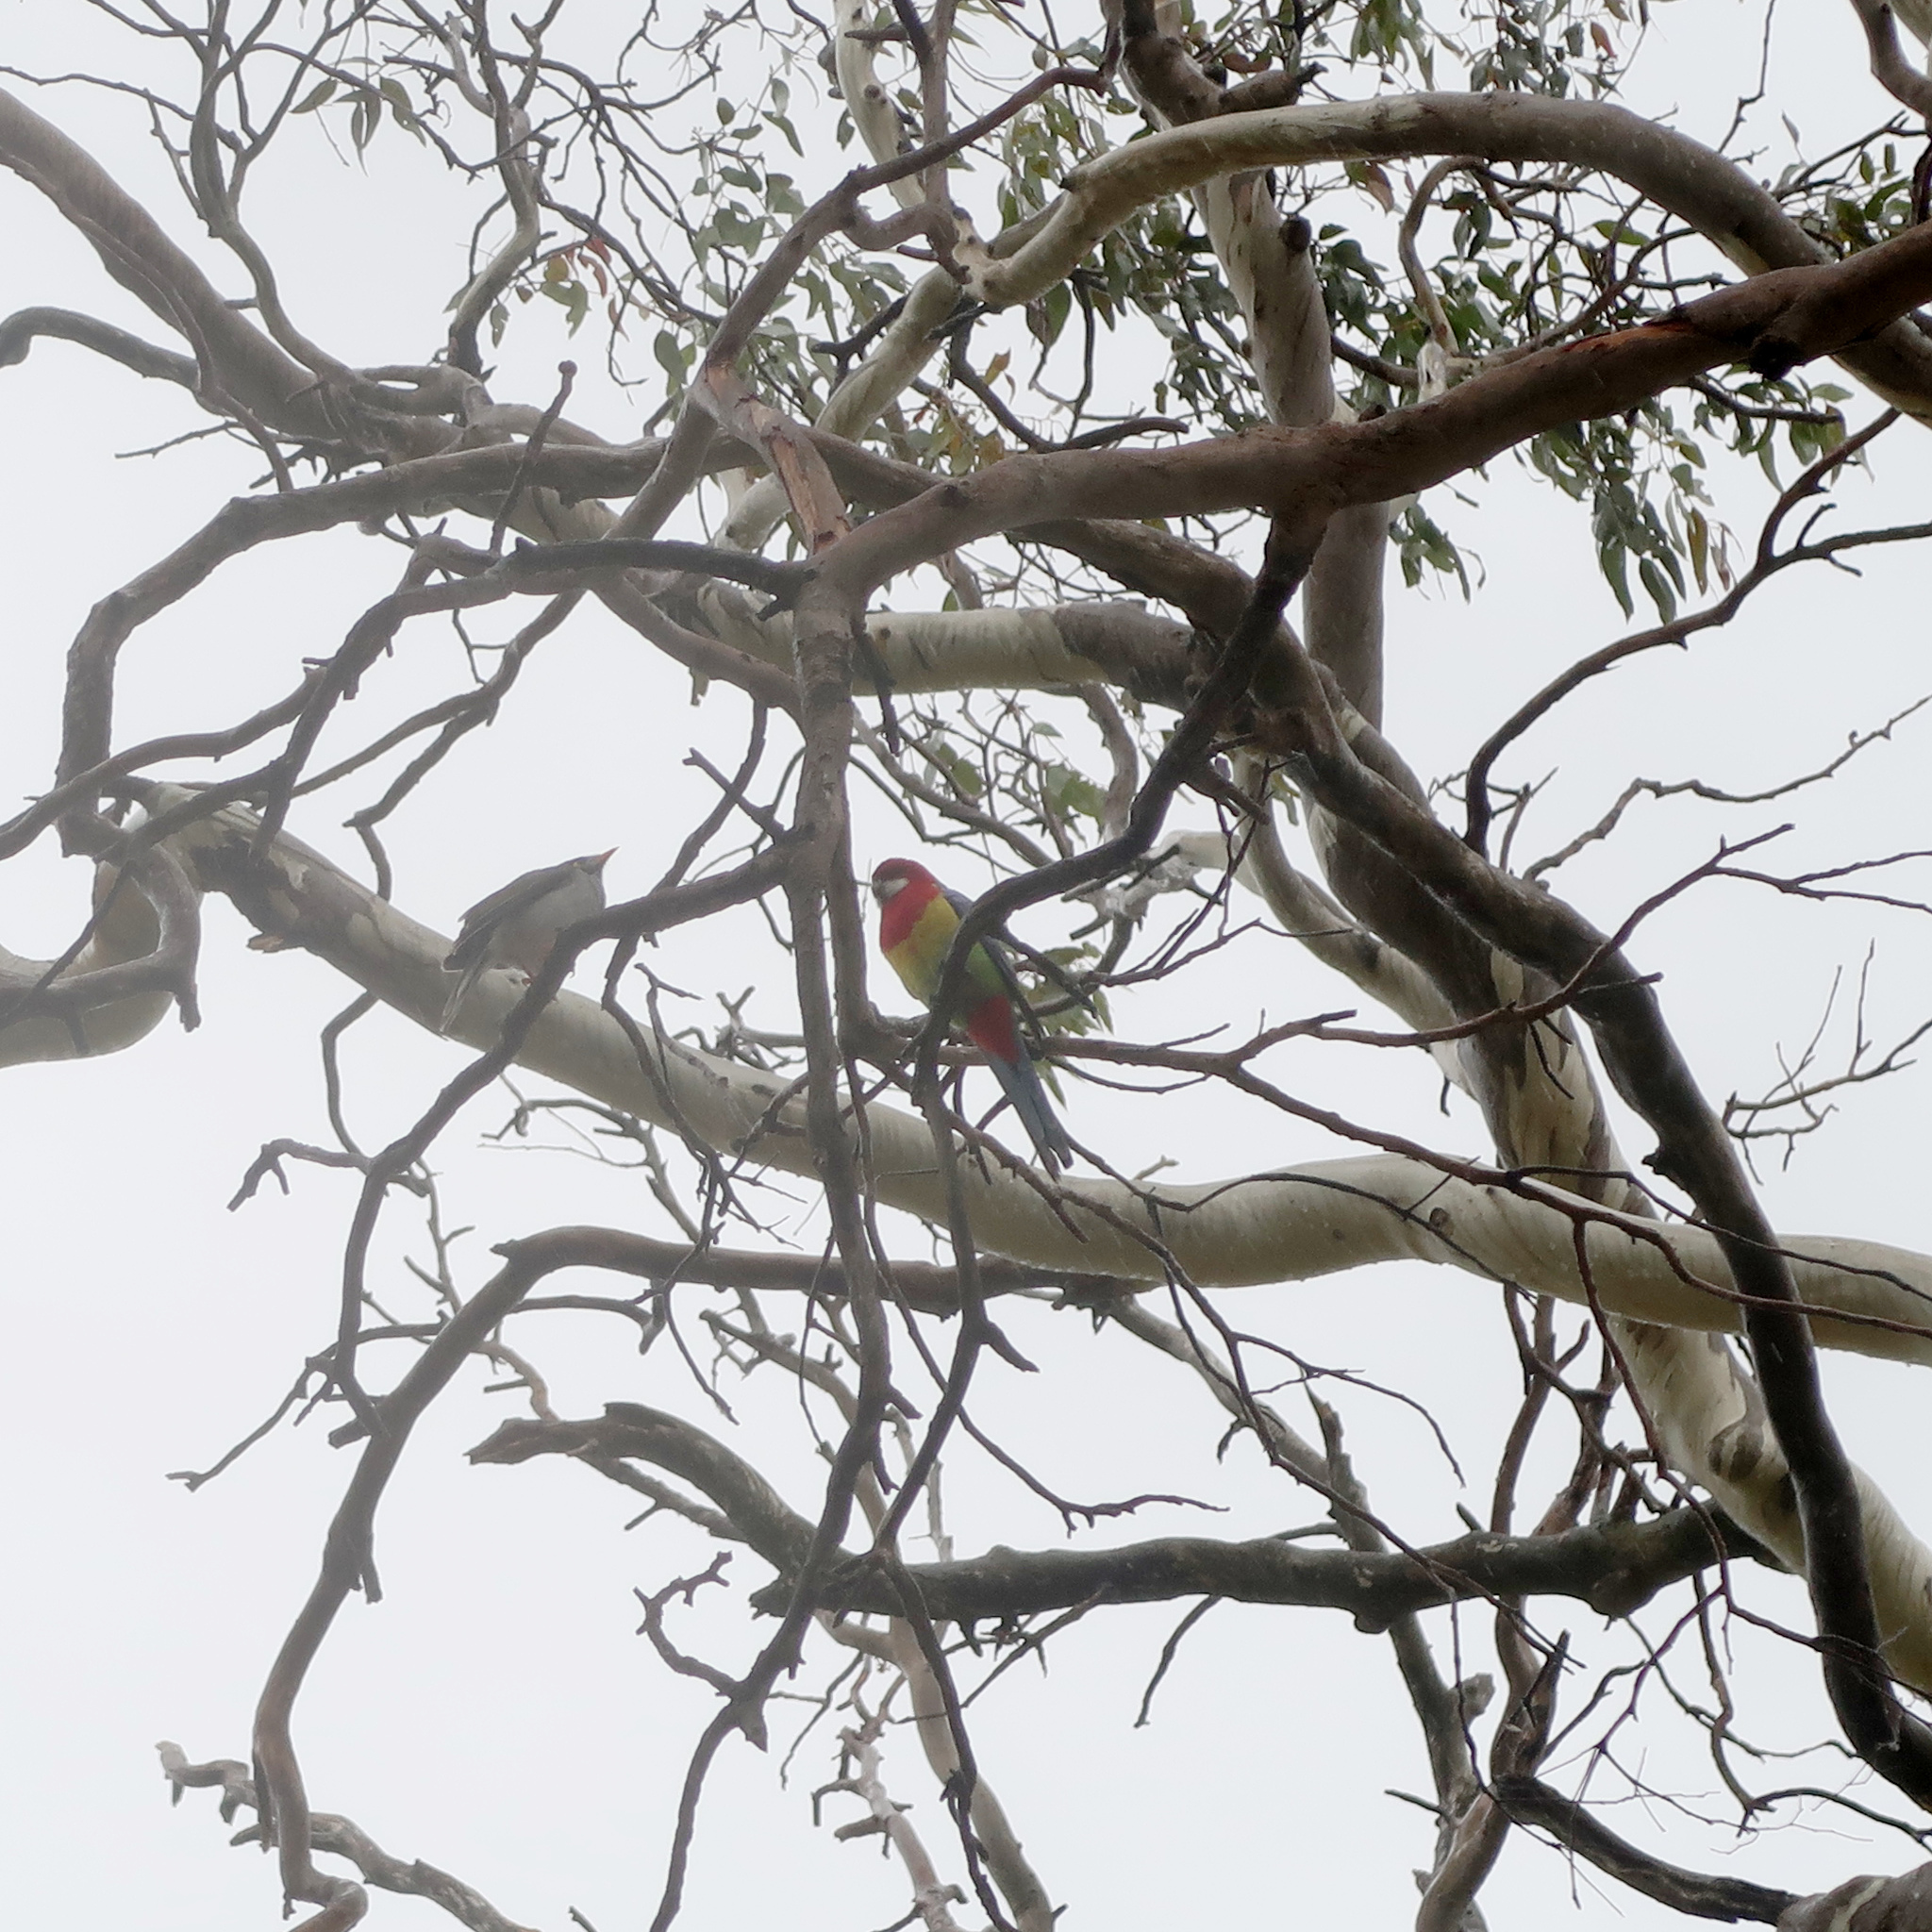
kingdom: Animalia
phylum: Chordata
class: Aves
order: Psittaciformes
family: Psittacidae
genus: Platycercus
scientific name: Platycercus eximius
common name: Eastern rosella
